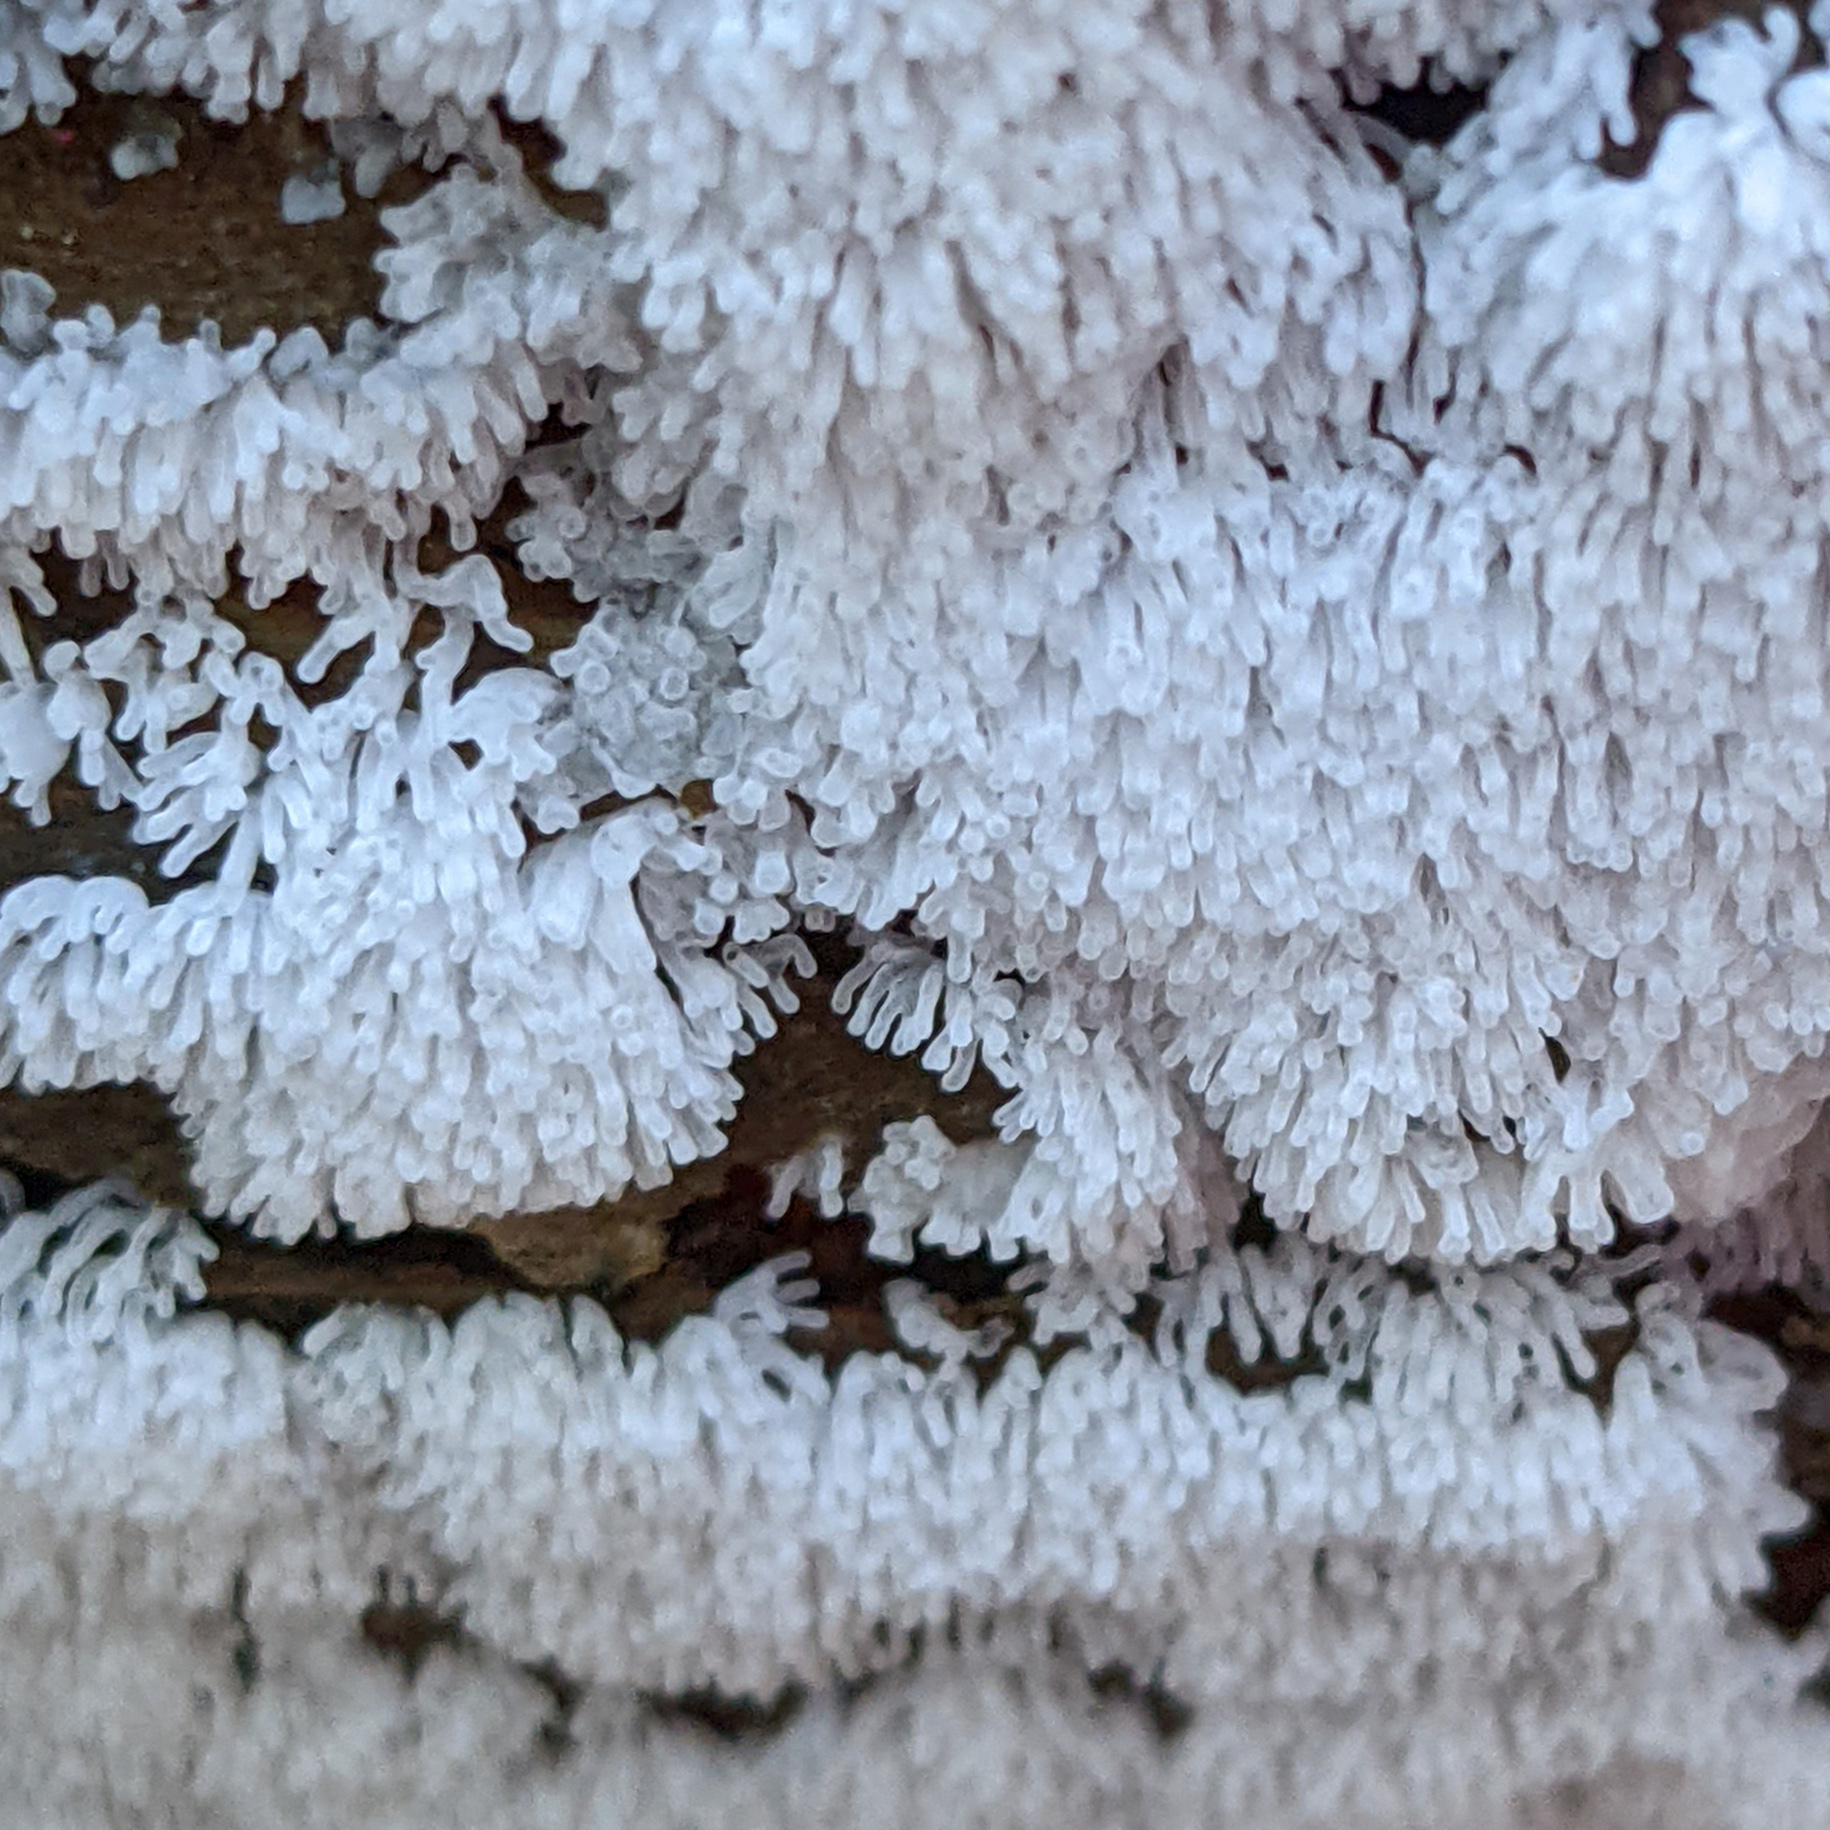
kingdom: Protozoa
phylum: Mycetozoa
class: Protosteliomycetes
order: Ceratiomyxales
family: Ceratiomyxaceae
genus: Ceratiomyxa
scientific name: Ceratiomyxa fruticulosa
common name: Honeycomb coral slime mold
